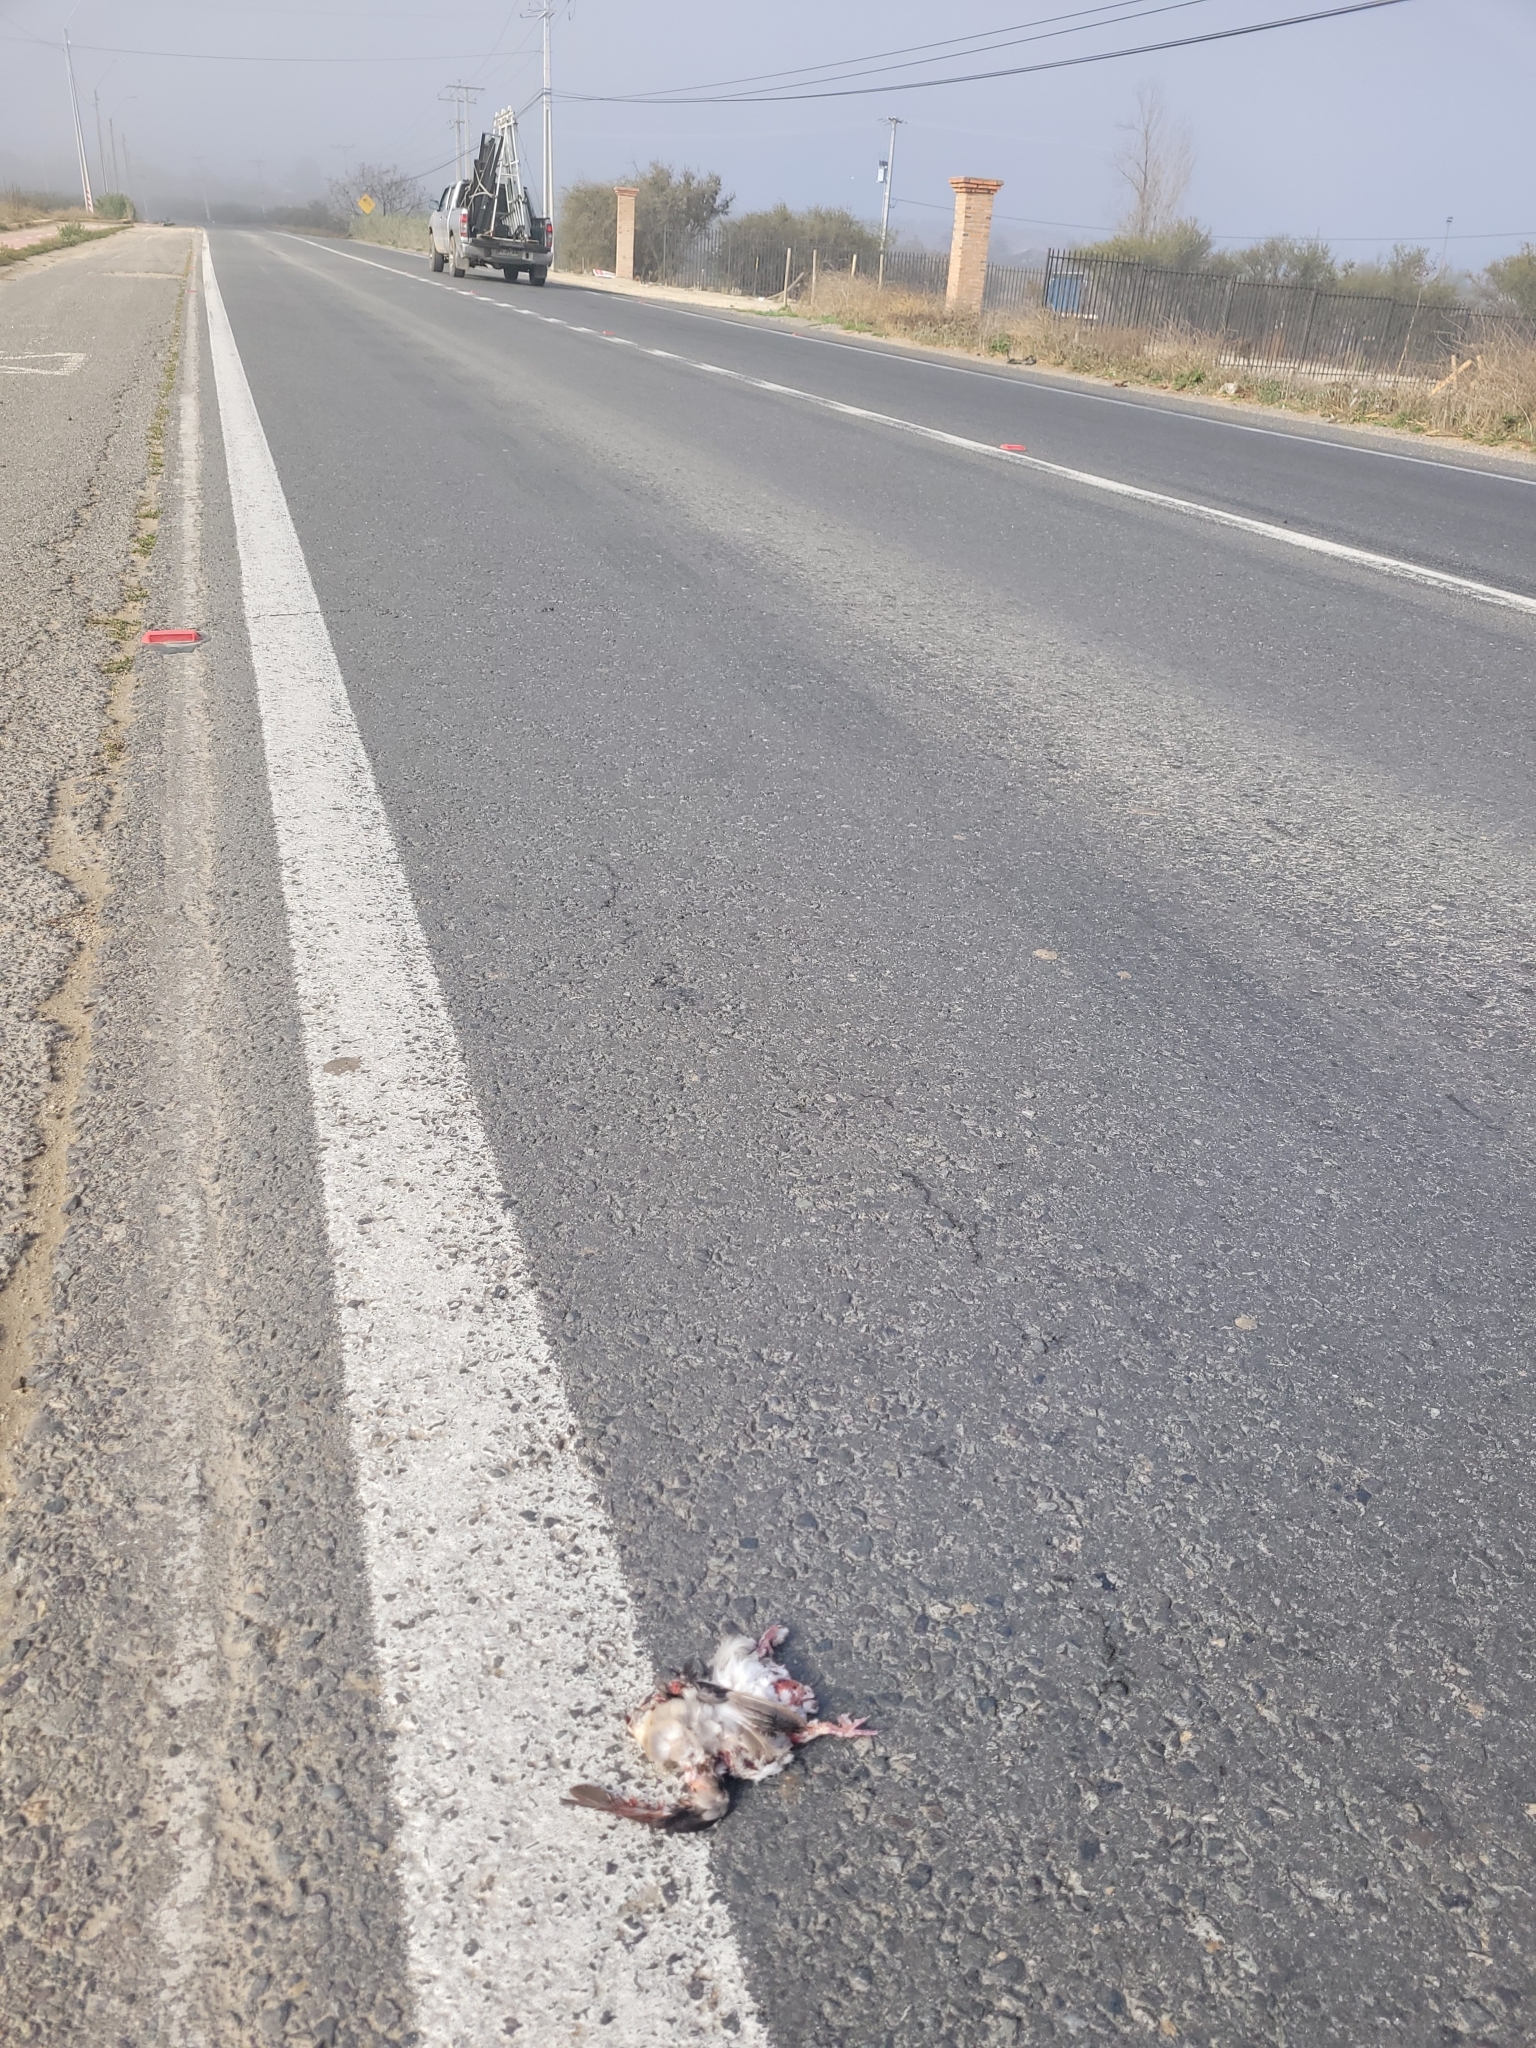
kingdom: Animalia
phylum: Chordata
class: Aves
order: Columbiformes
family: Columbidae
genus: Columbina
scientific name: Columbina picui
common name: Picui ground dove
